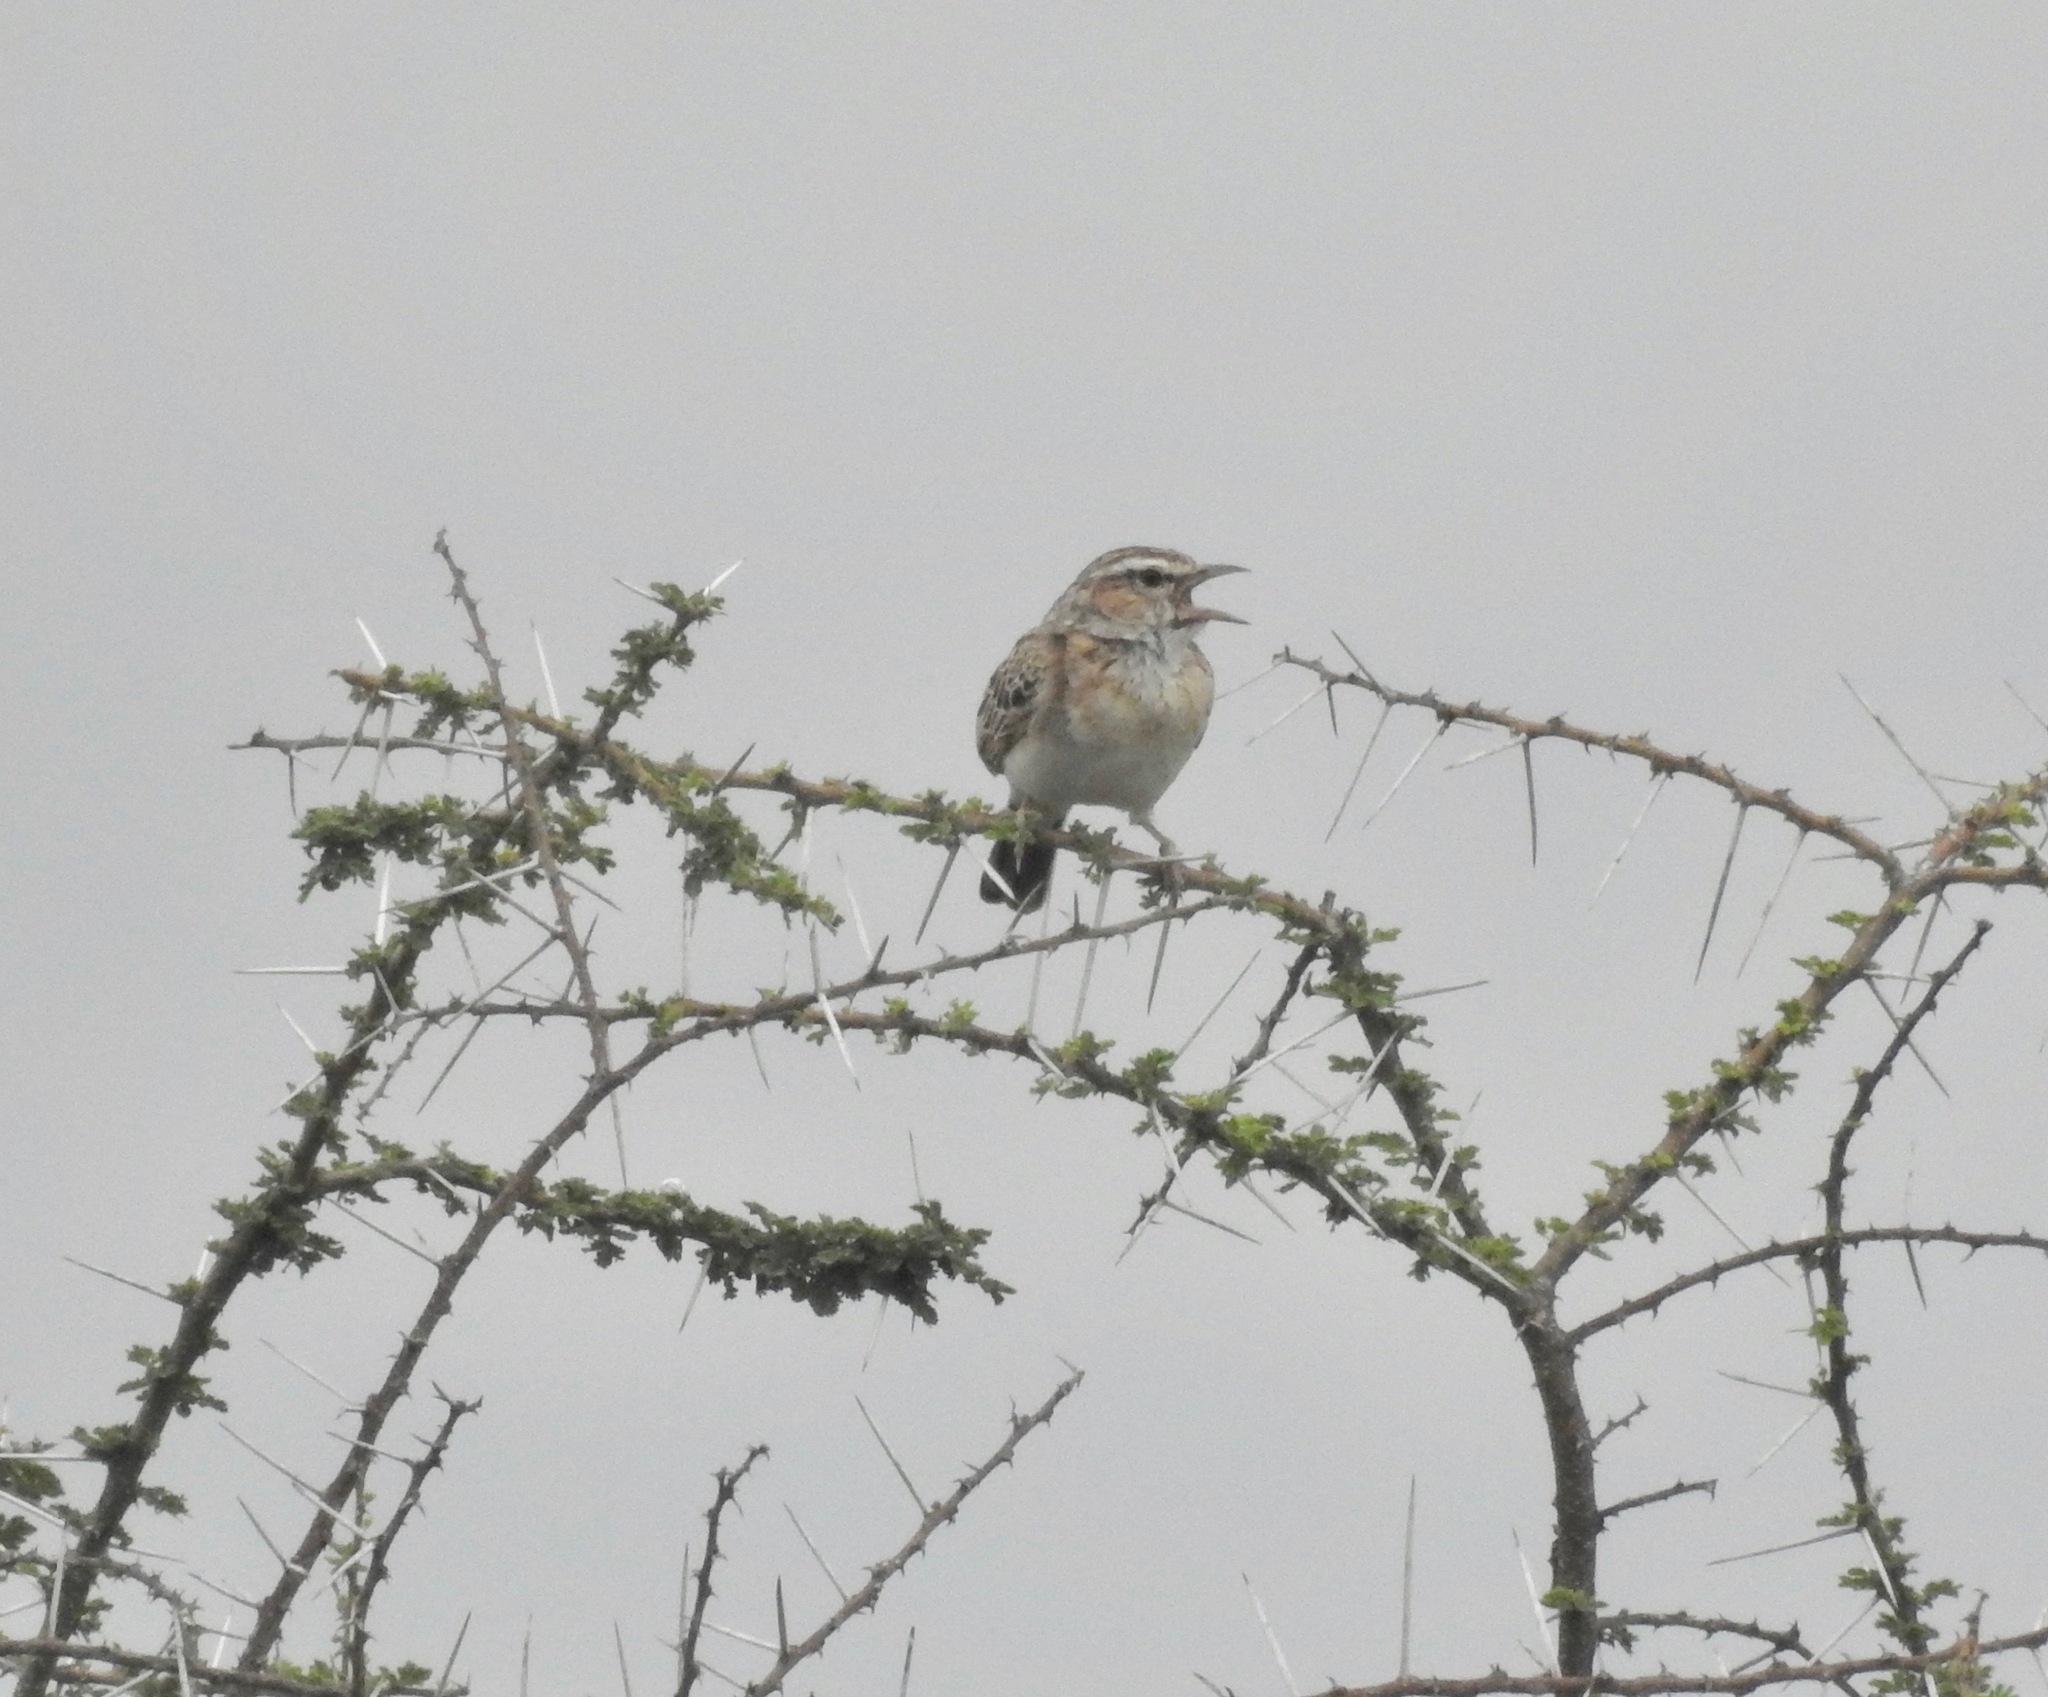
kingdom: Animalia
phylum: Chordata
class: Aves
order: Passeriformes
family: Alaudidae
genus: Calendulauda
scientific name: Calendulauda africanoides
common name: Fawn-colored lark
